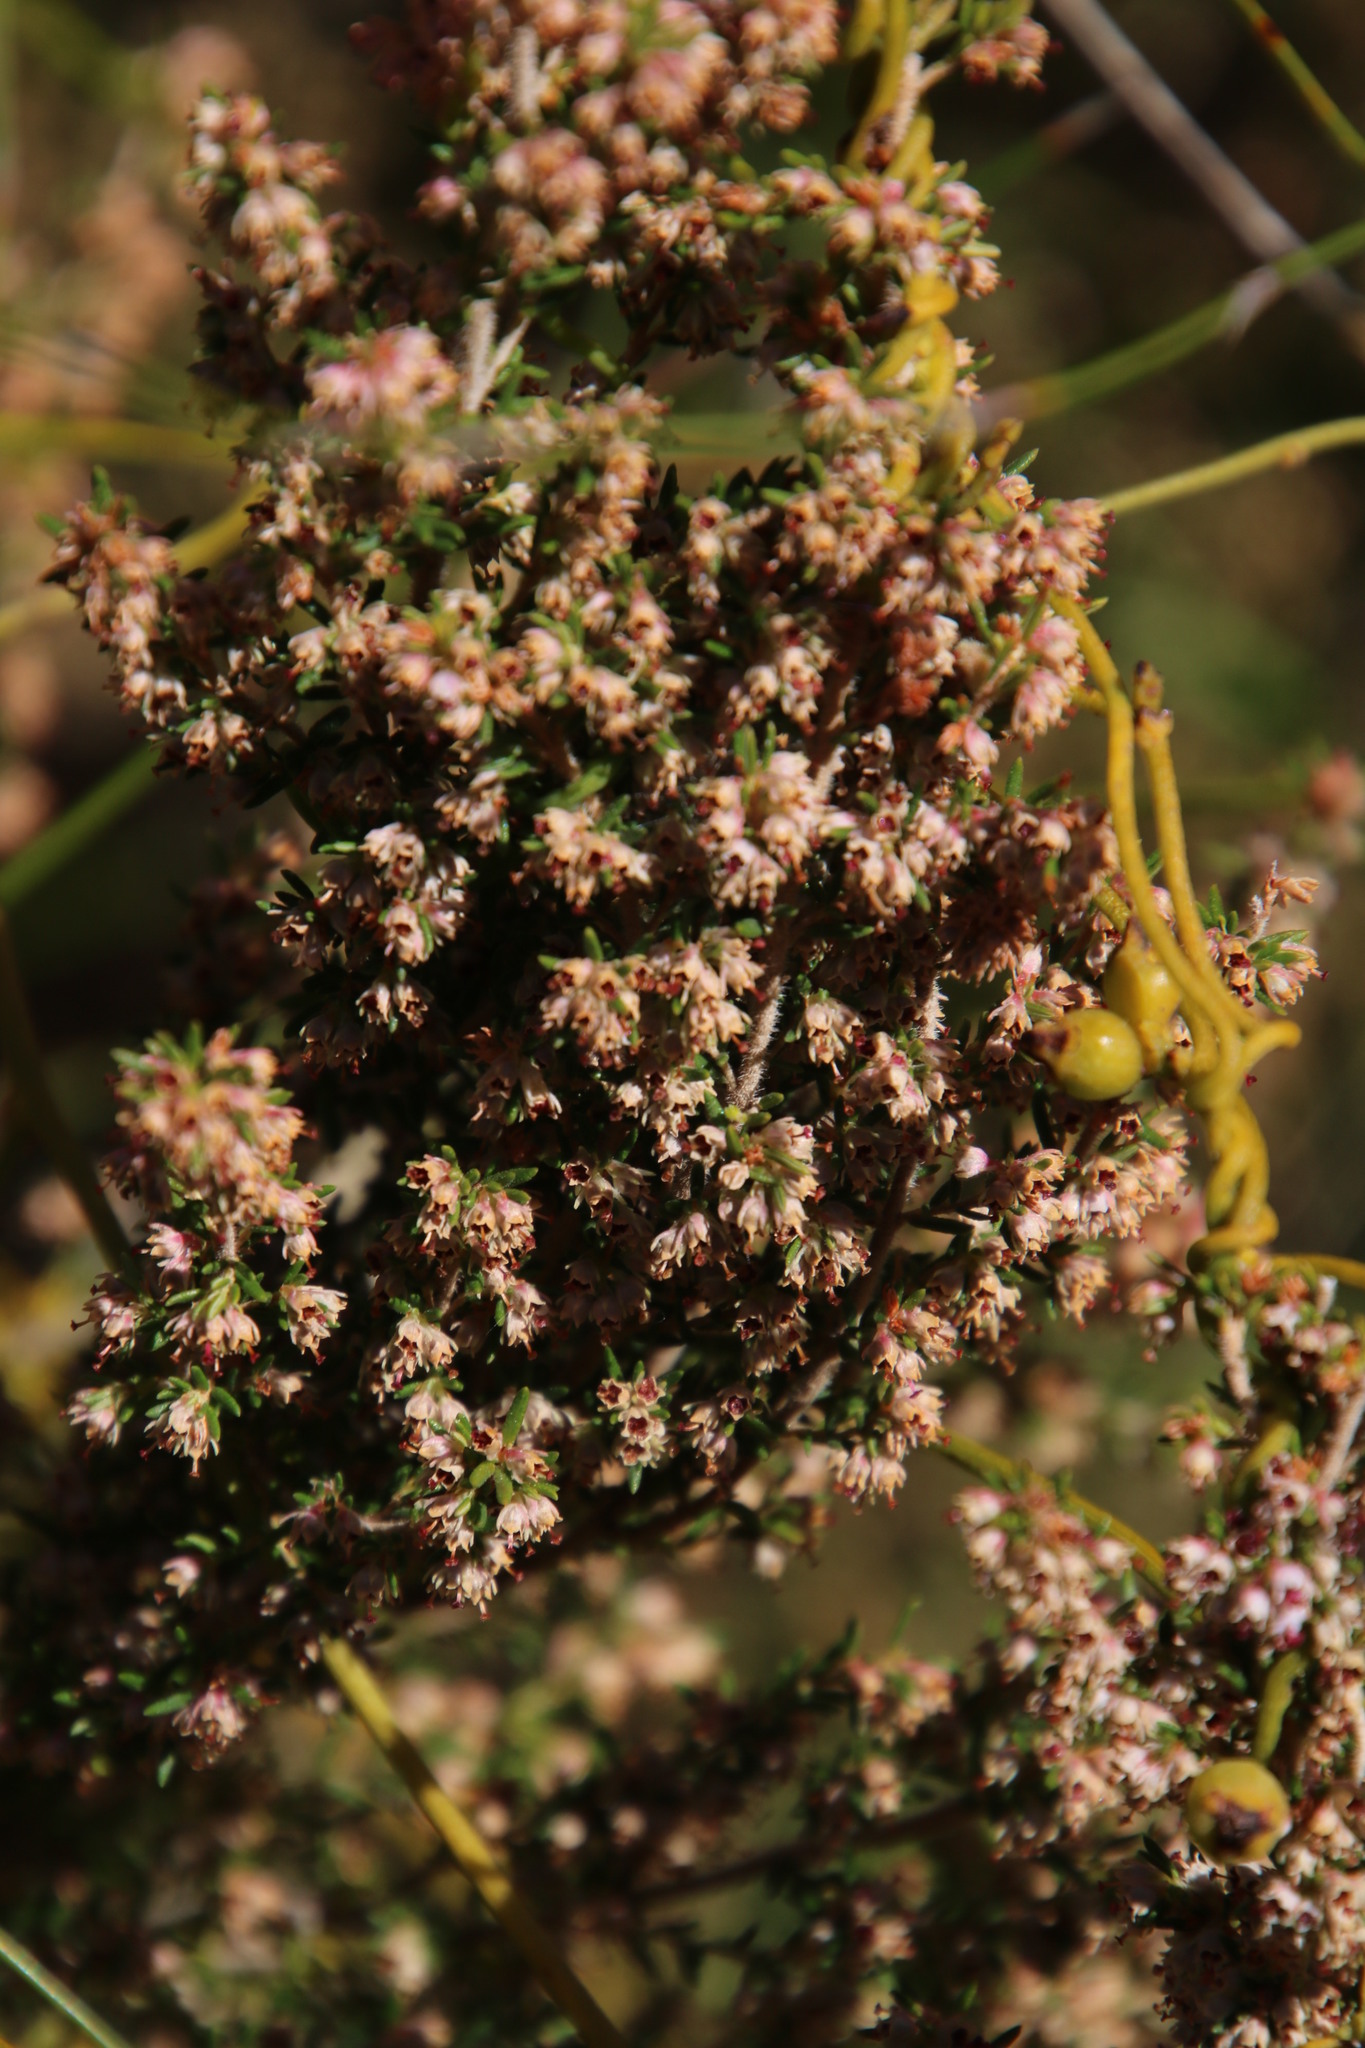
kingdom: Plantae
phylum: Tracheophyta
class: Magnoliopsida
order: Ericales
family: Ericaceae
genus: Erica
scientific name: Erica hispidula
